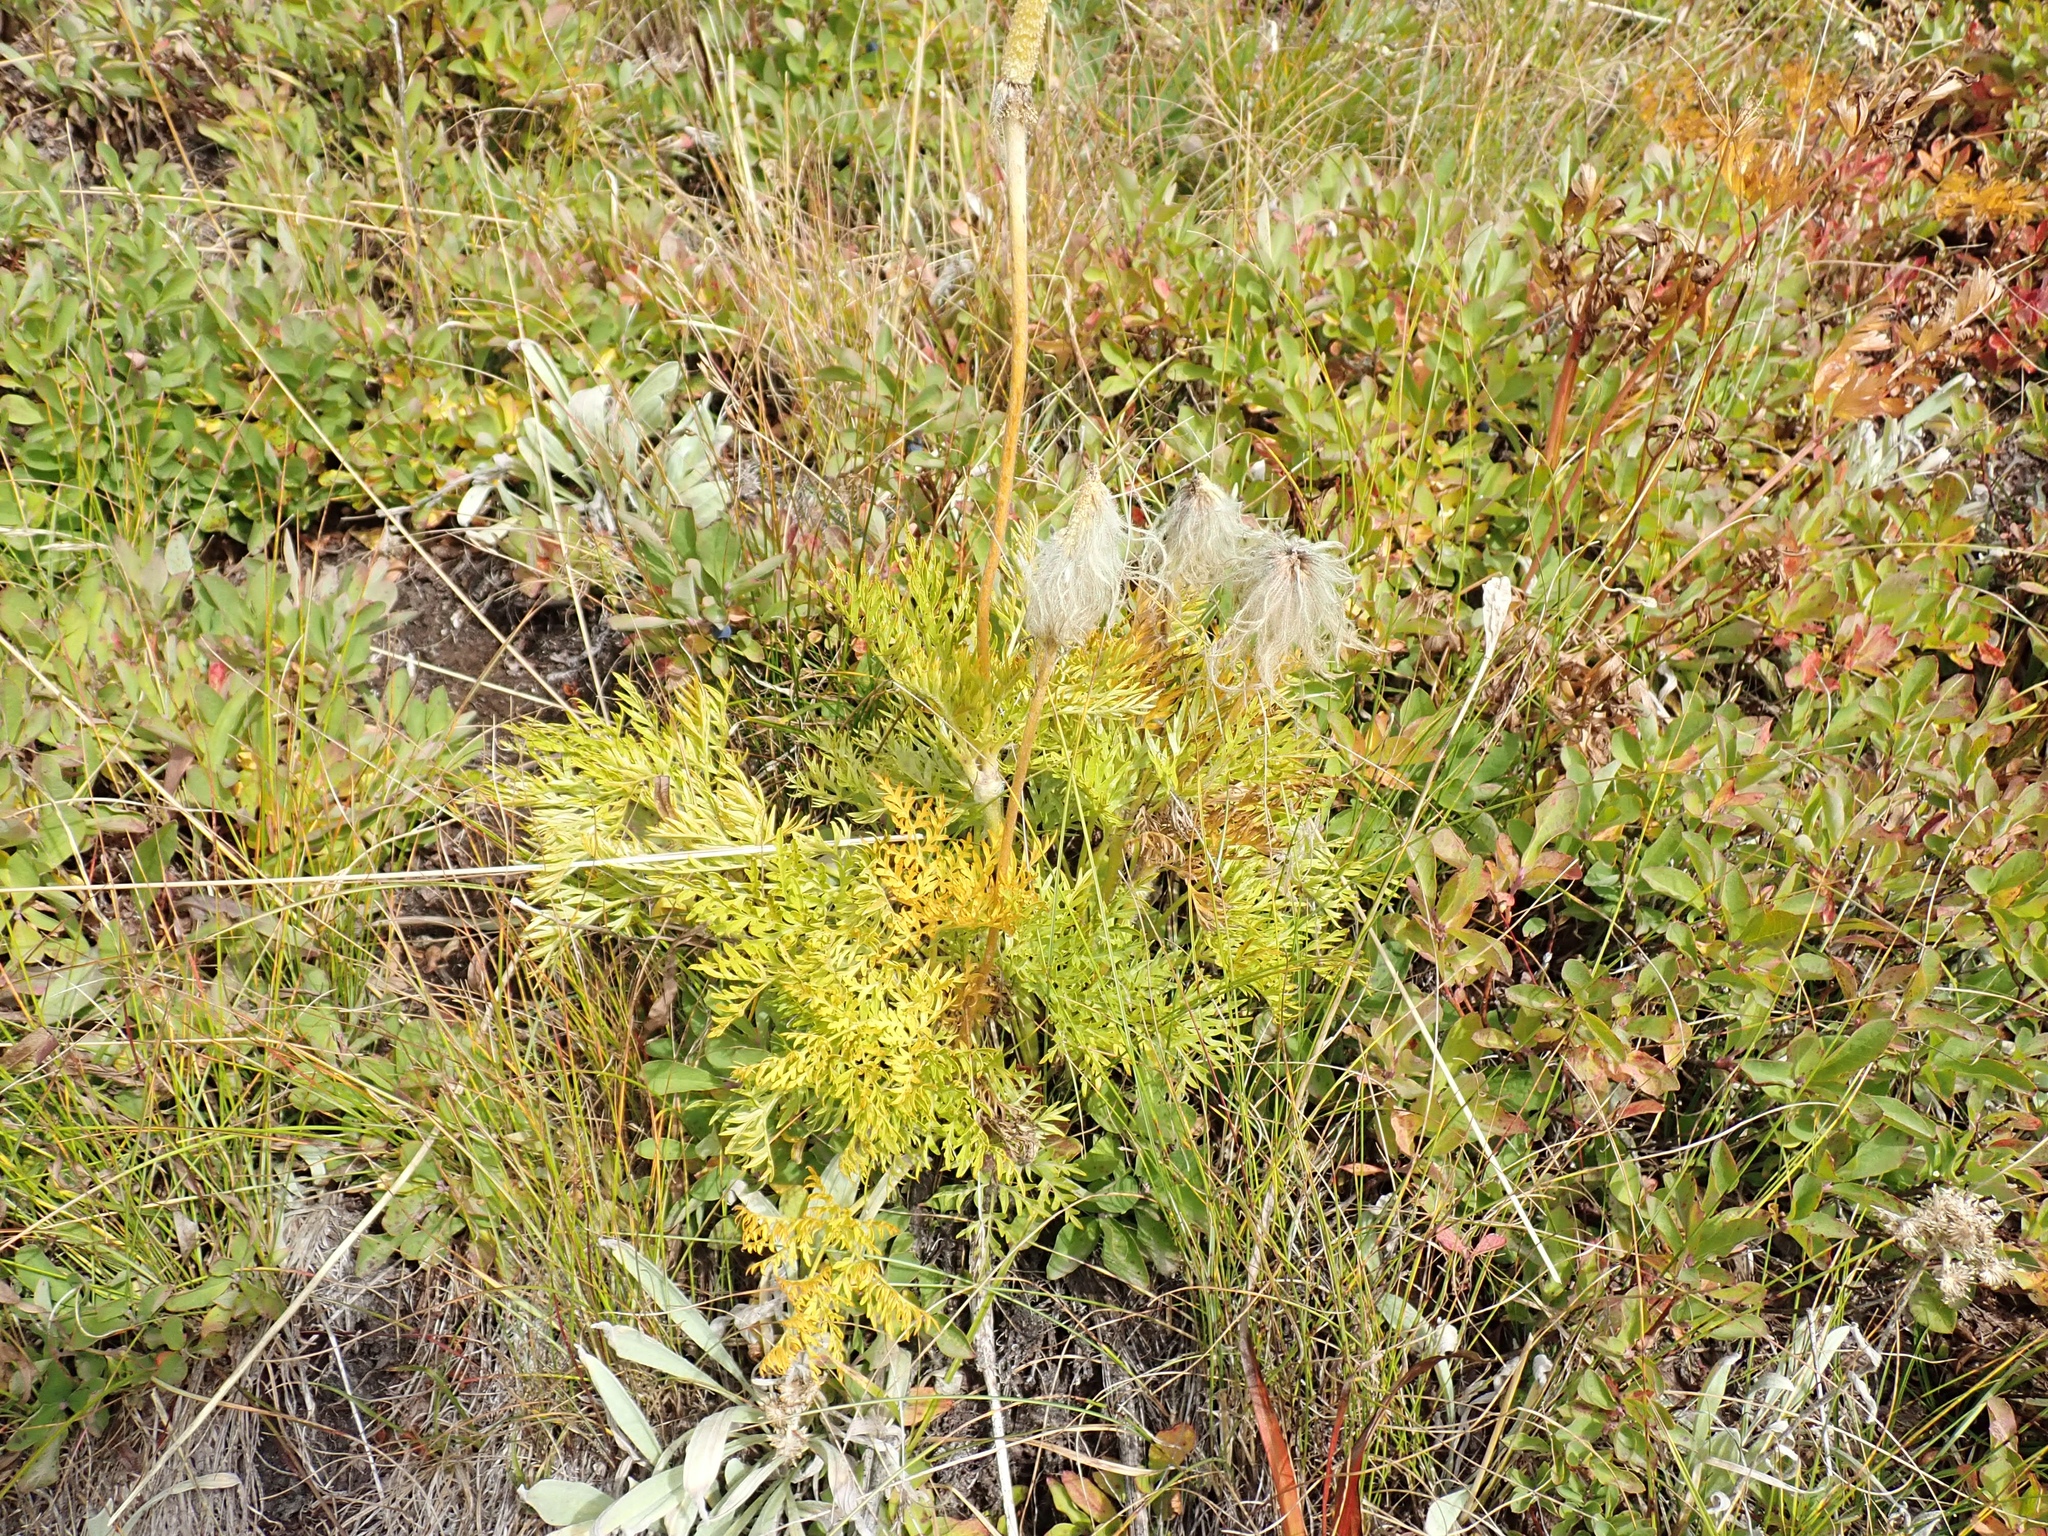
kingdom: Plantae
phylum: Tracheophyta
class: Magnoliopsida
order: Ranunculales
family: Ranunculaceae
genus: Pulsatilla
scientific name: Pulsatilla occidentalis
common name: Mountain pasqueflower
